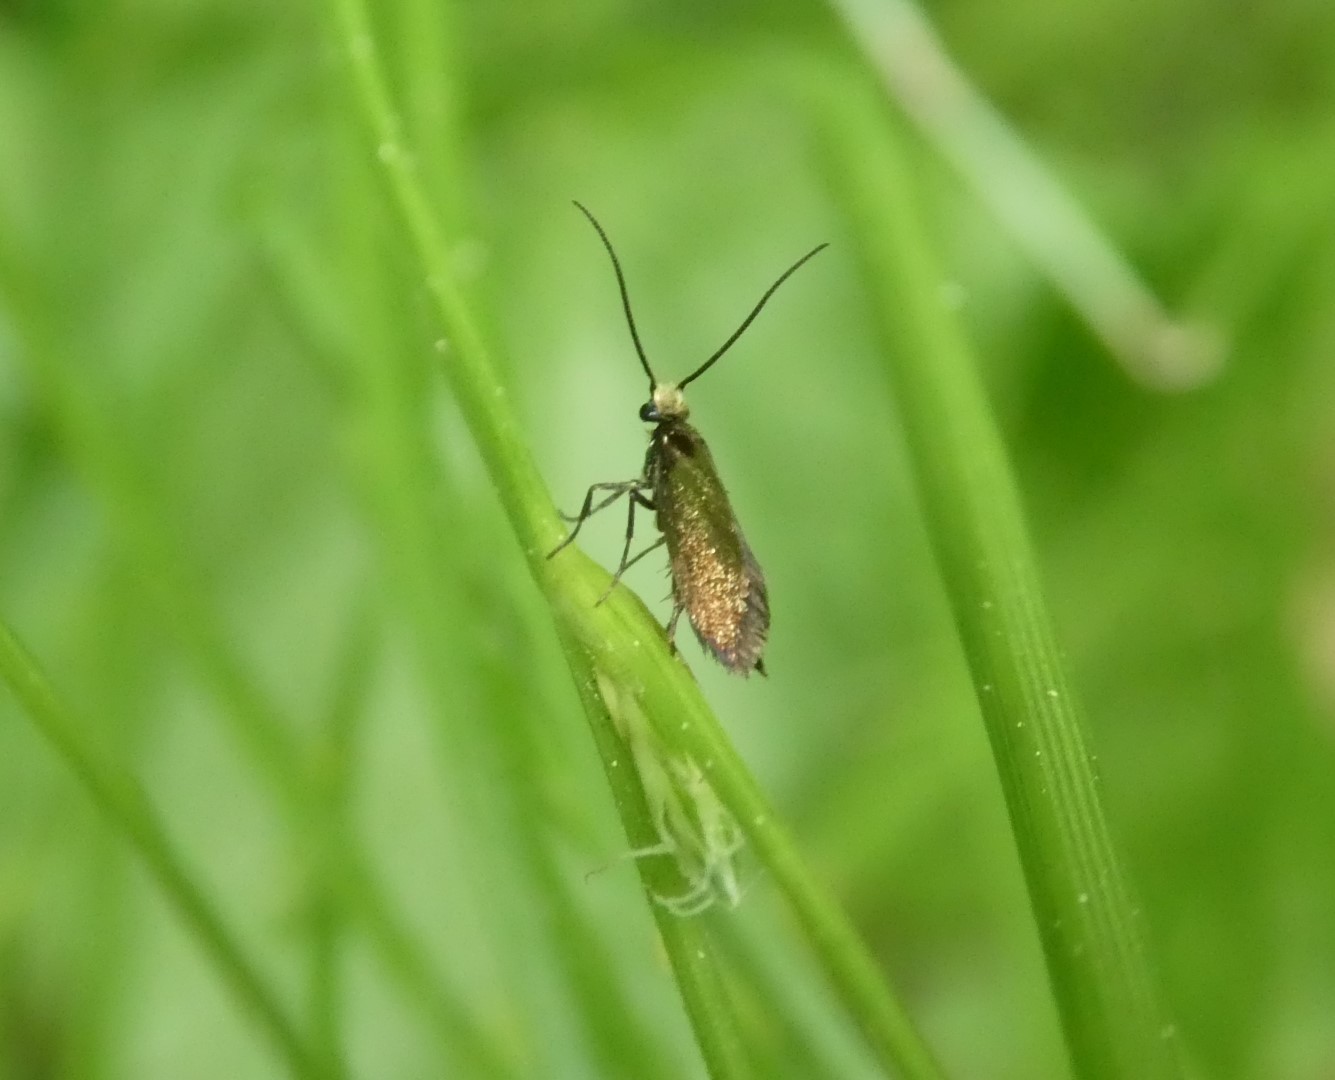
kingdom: Animalia
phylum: Arthropoda
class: Insecta
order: Lepidoptera
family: Micropterigidae
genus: Micropterix
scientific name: Micropterix calthella
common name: Plain gold
